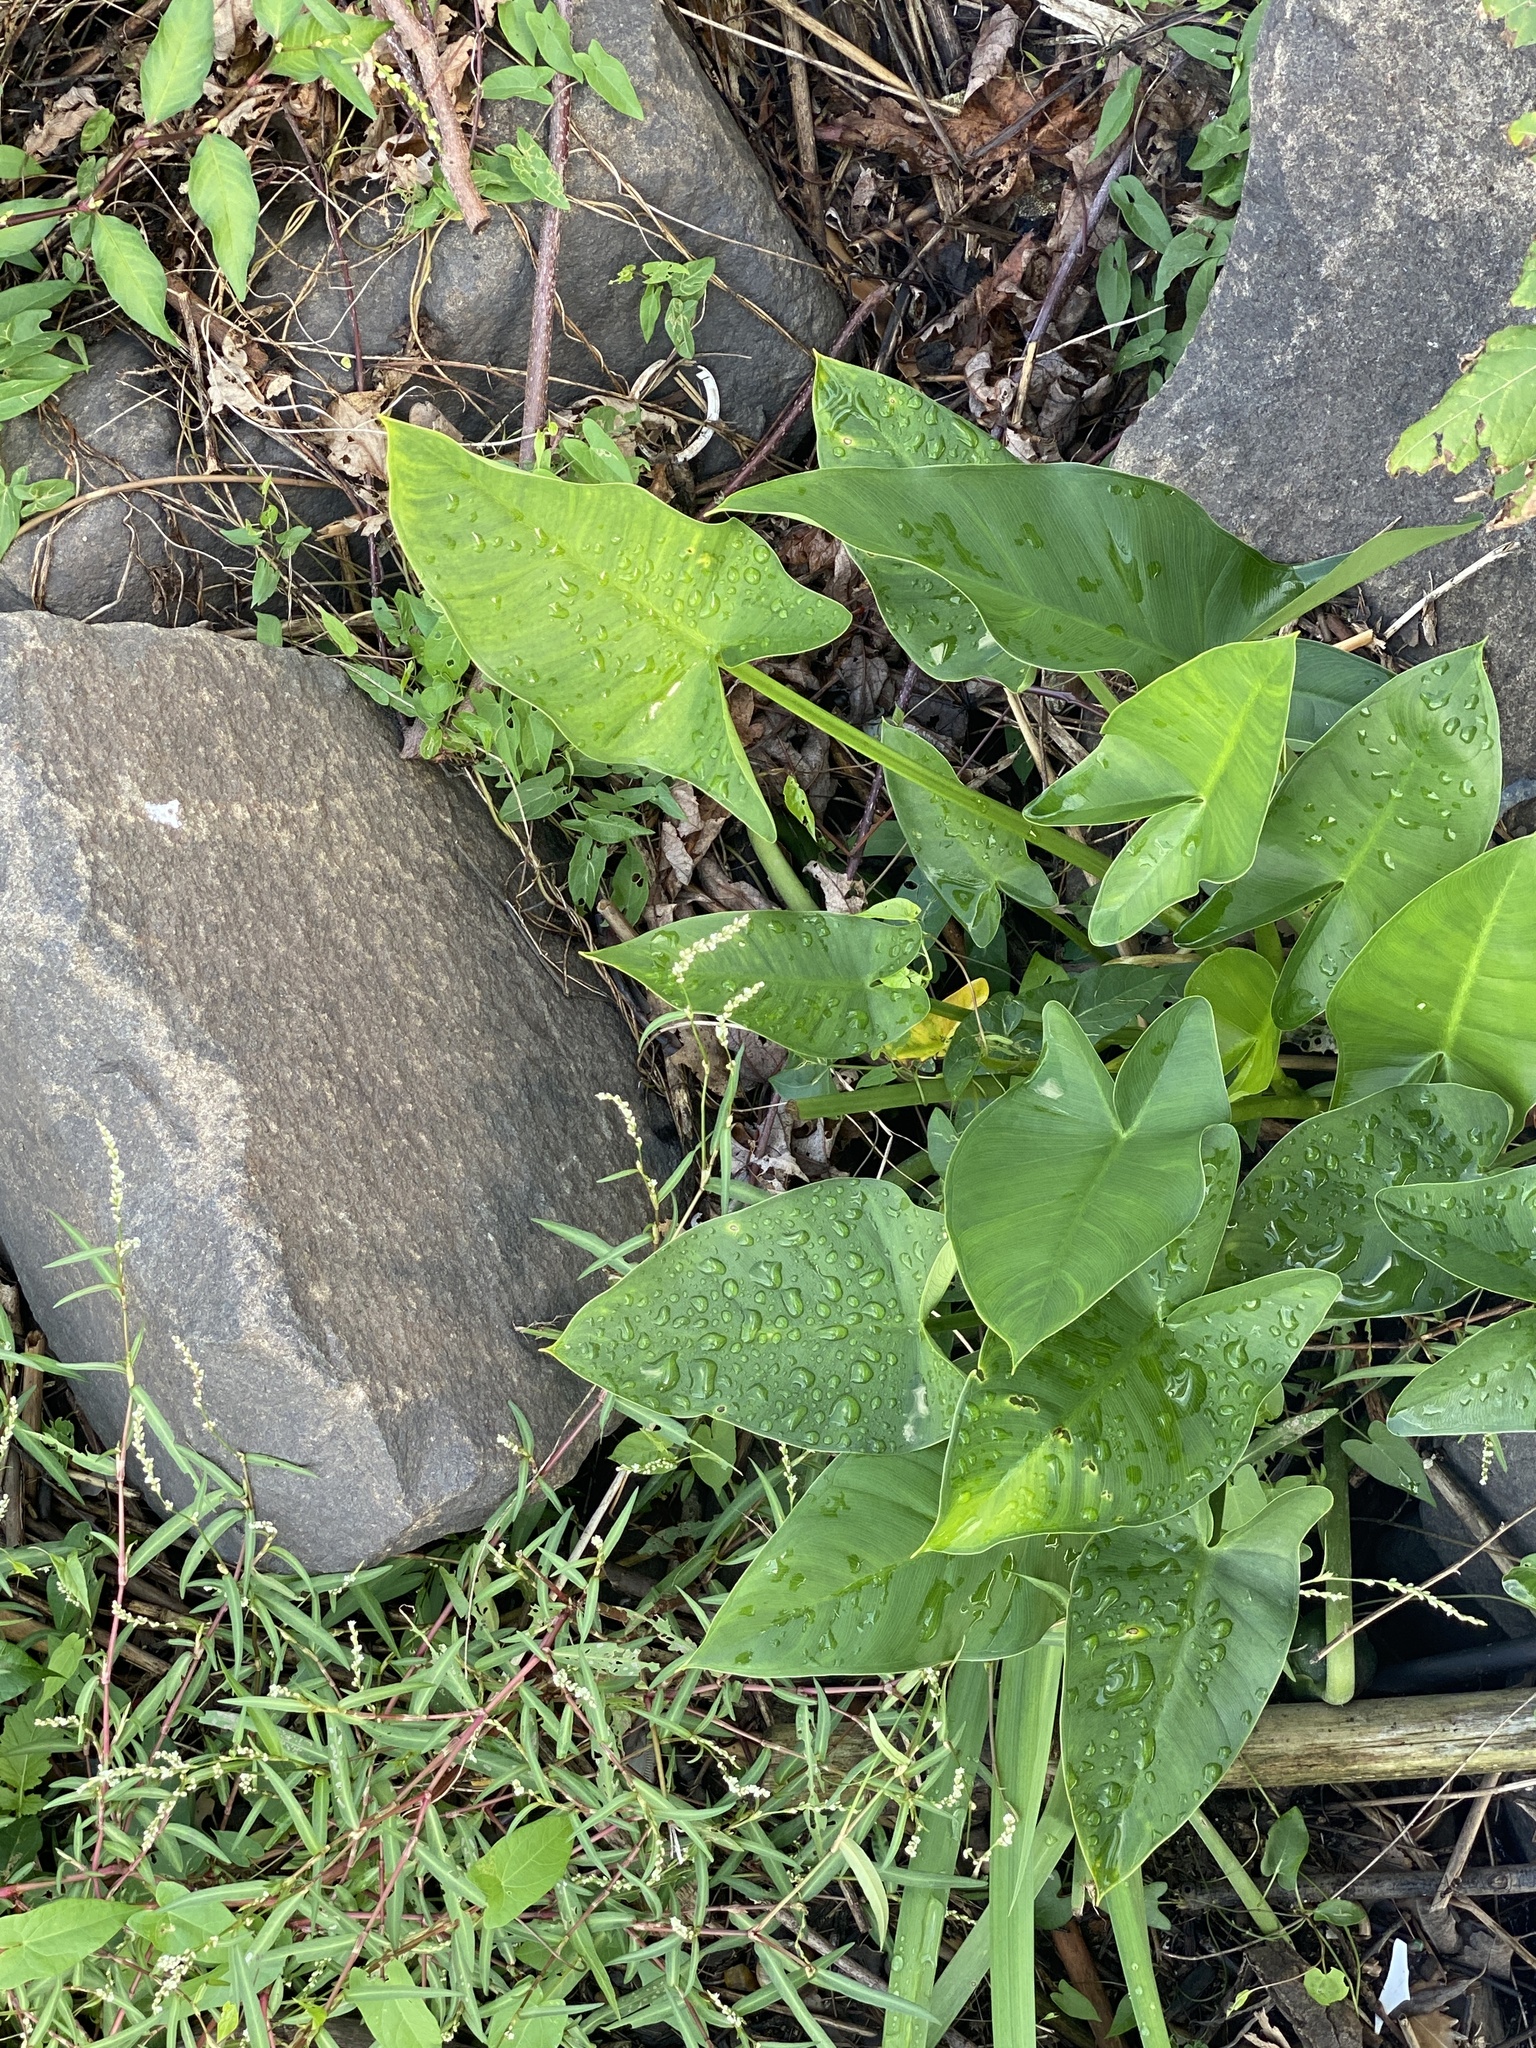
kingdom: Plantae
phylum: Tracheophyta
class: Liliopsida
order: Alismatales
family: Araceae
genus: Peltandra
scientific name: Peltandra virginica
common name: Arrow arum
